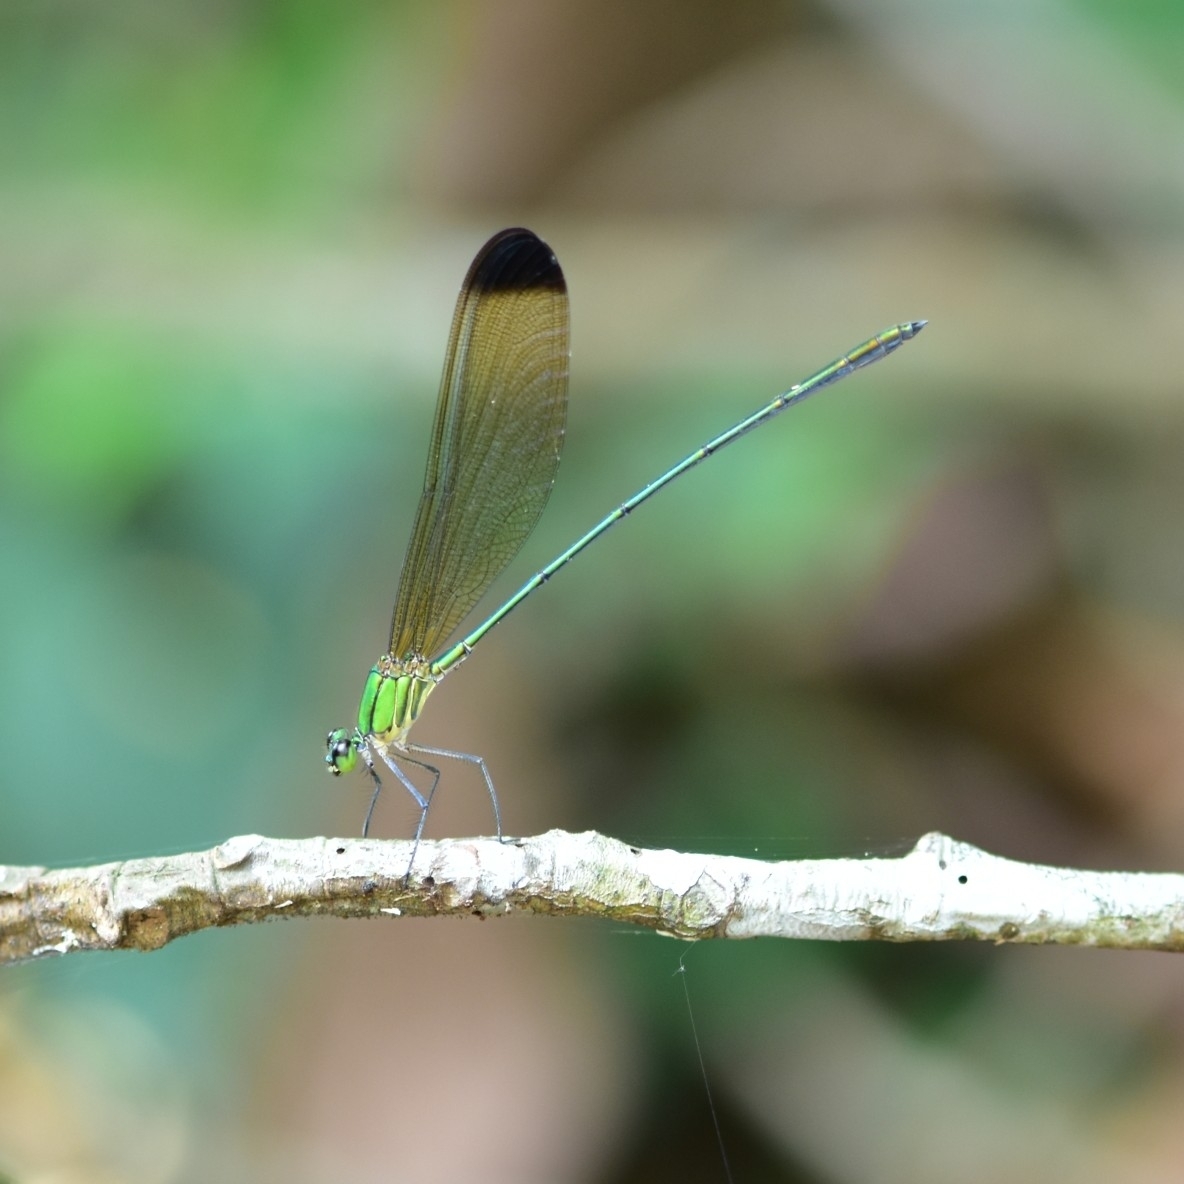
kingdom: Animalia
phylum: Arthropoda
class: Insecta
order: Odonata
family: Calopterygidae
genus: Vestalis
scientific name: Vestalis apicalis
